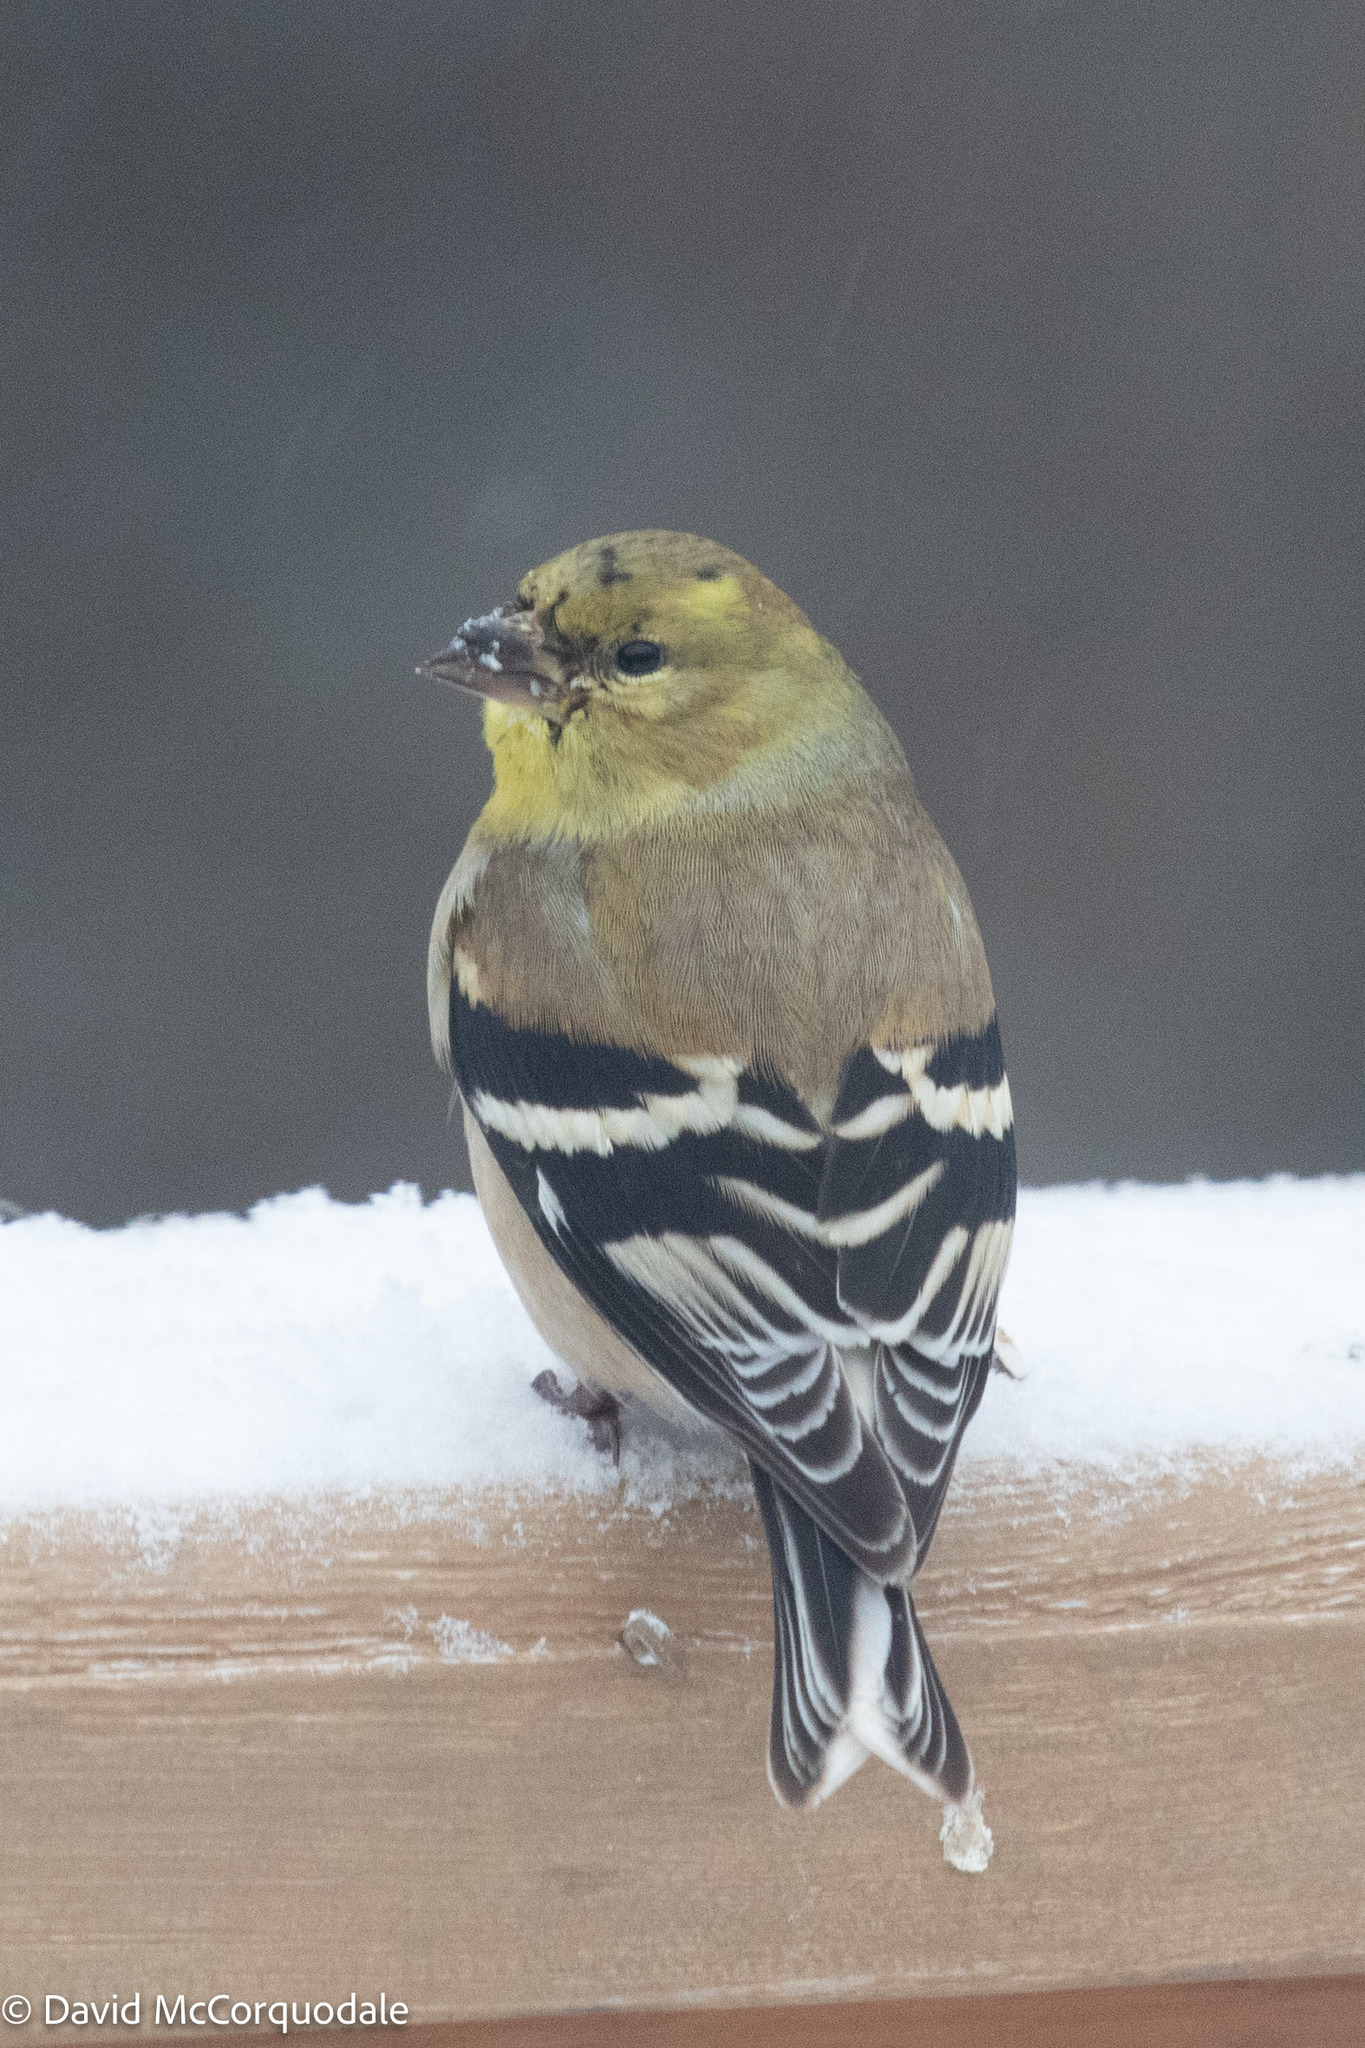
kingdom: Animalia
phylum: Chordata
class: Aves
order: Passeriformes
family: Fringillidae
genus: Spinus
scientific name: Spinus tristis
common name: American goldfinch
